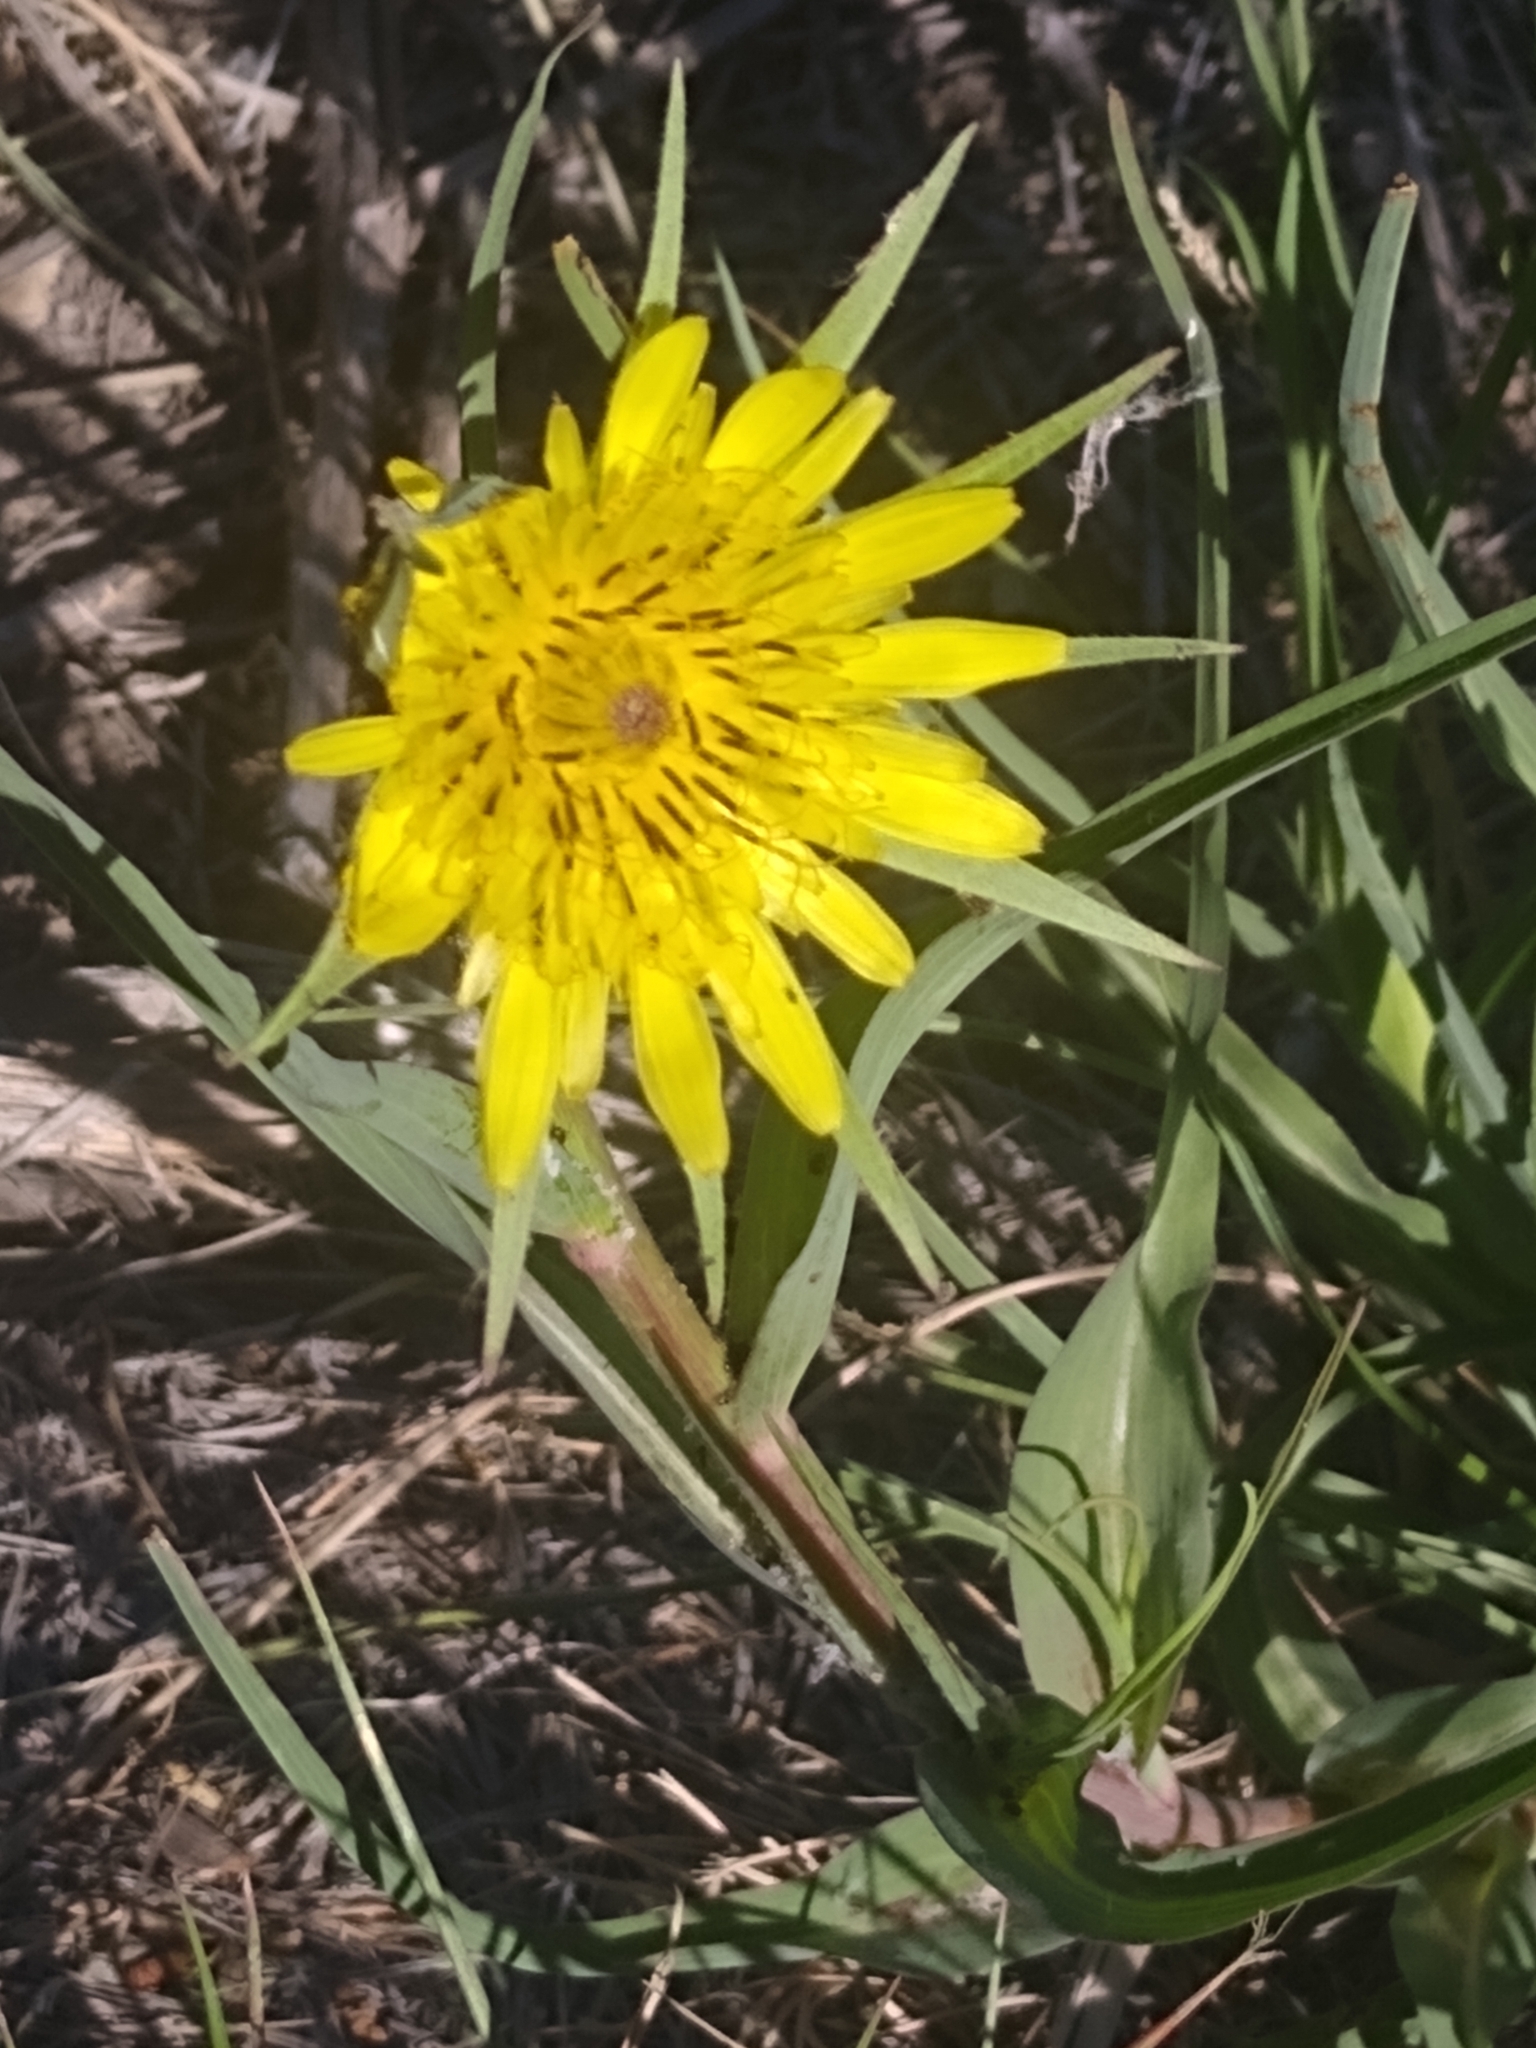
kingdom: Plantae
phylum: Tracheophyta
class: Magnoliopsida
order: Asterales
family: Asteraceae
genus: Tragopogon
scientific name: Tragopogon dubius
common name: Yellow salsify
